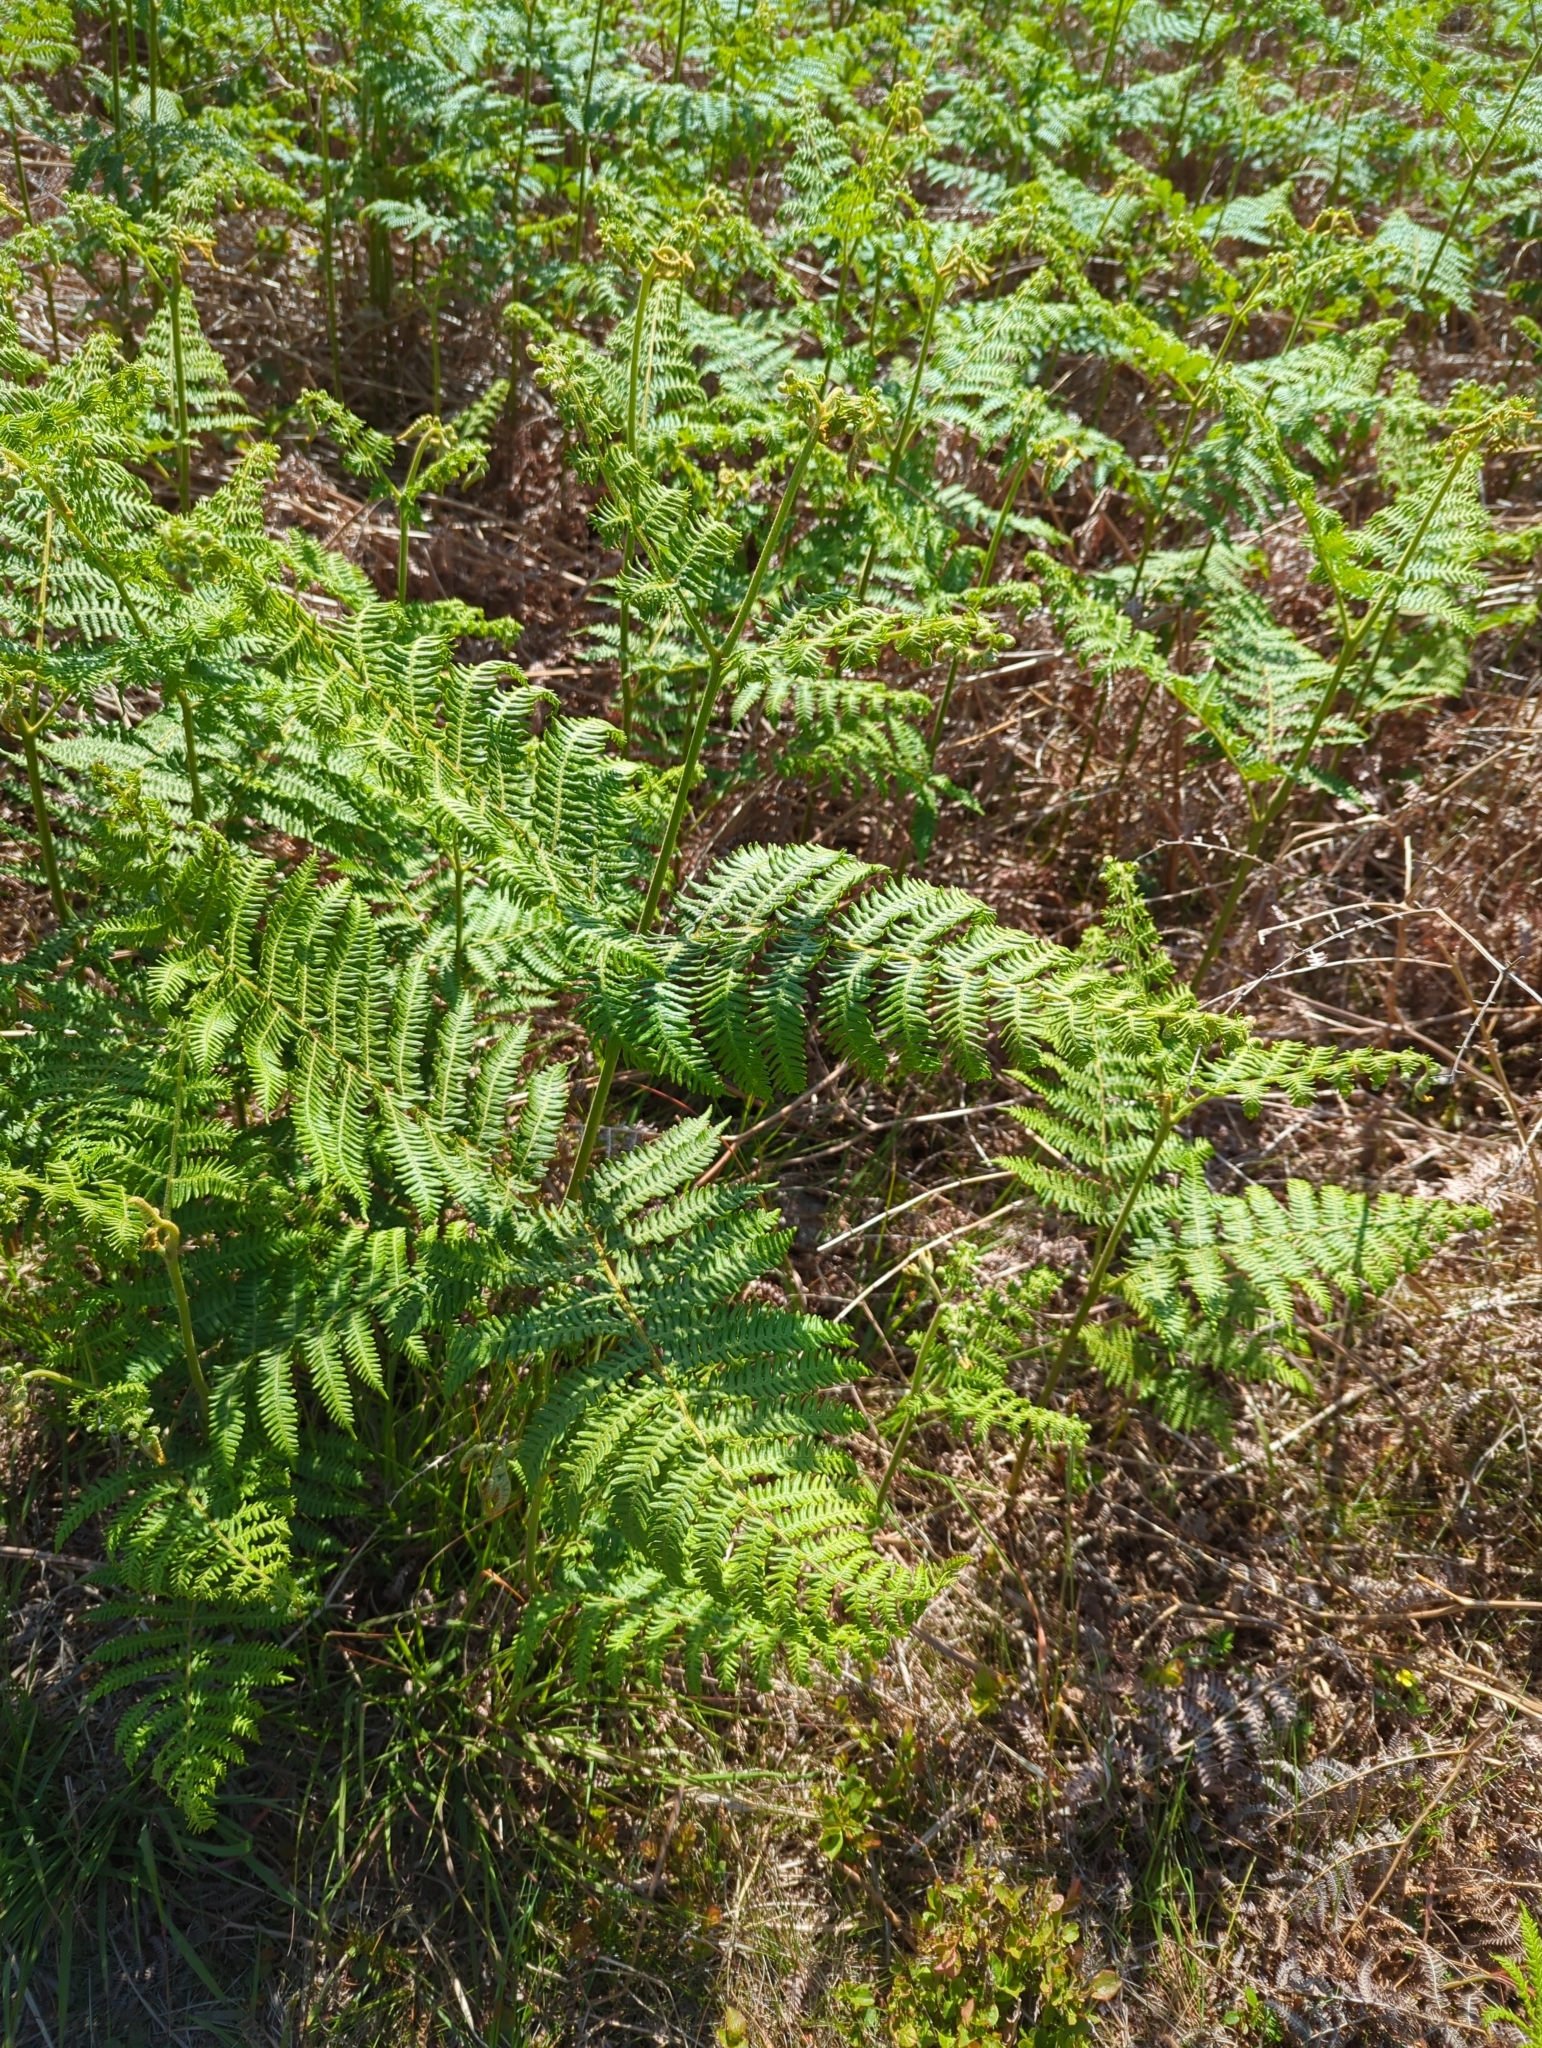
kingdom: Plantae
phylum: Tracheophyta
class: Polypodiopsida
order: Polypodiales
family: Dennstaedtiaceae
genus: Pteridium
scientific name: Pteridium aquilinum
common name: Bracken
